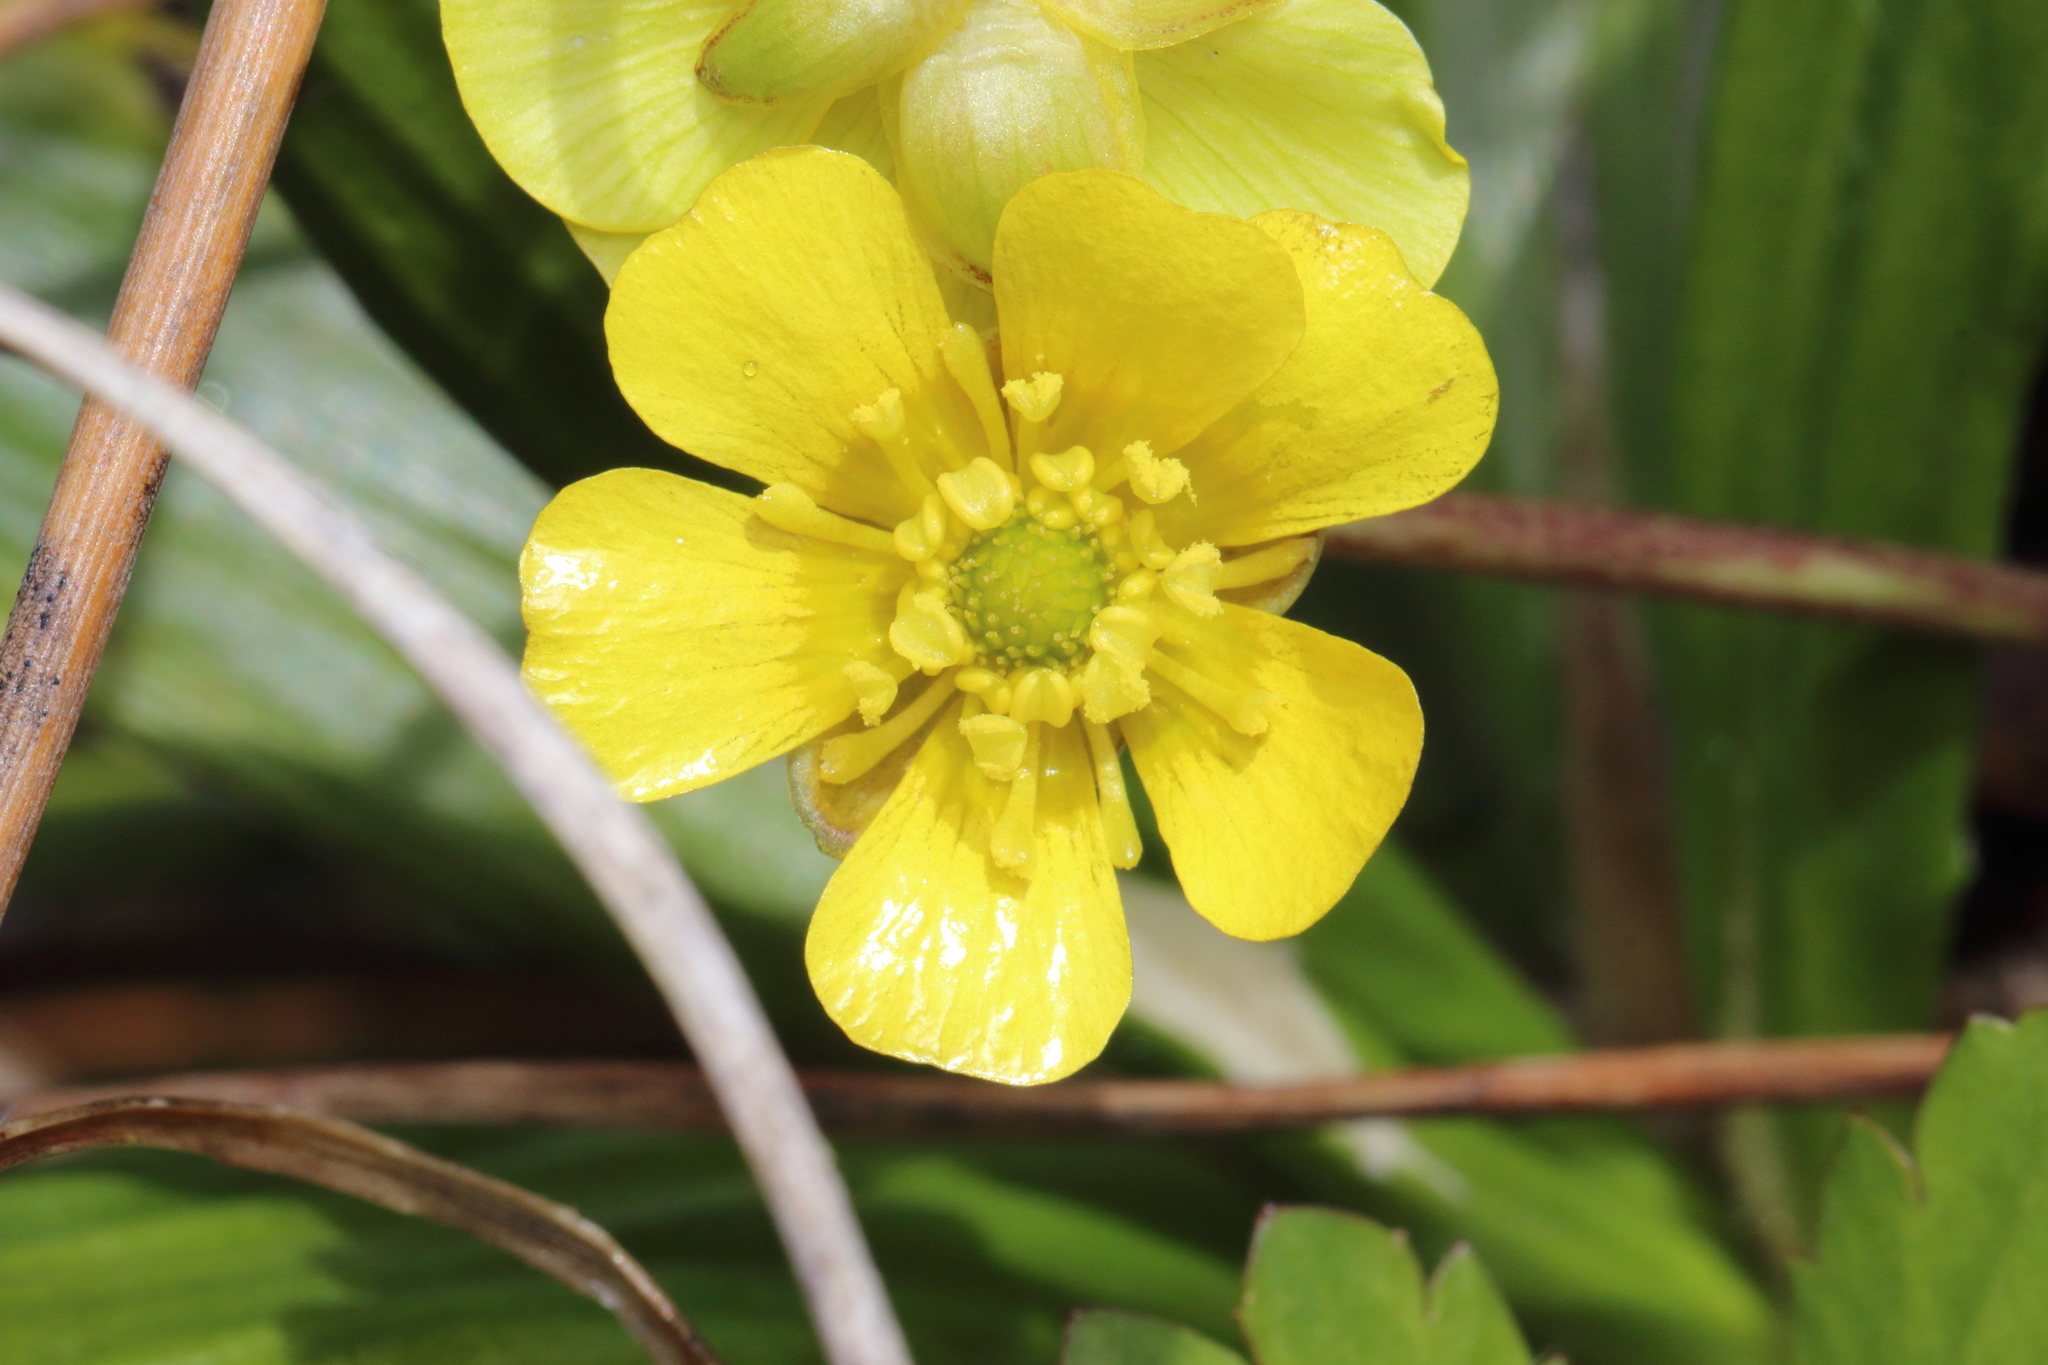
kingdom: Plantae
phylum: Tracheophyta
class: Magnoliopsida
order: Ranunculales
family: Ranunculaceae
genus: Ranunculus
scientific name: Ranunculus enysii
